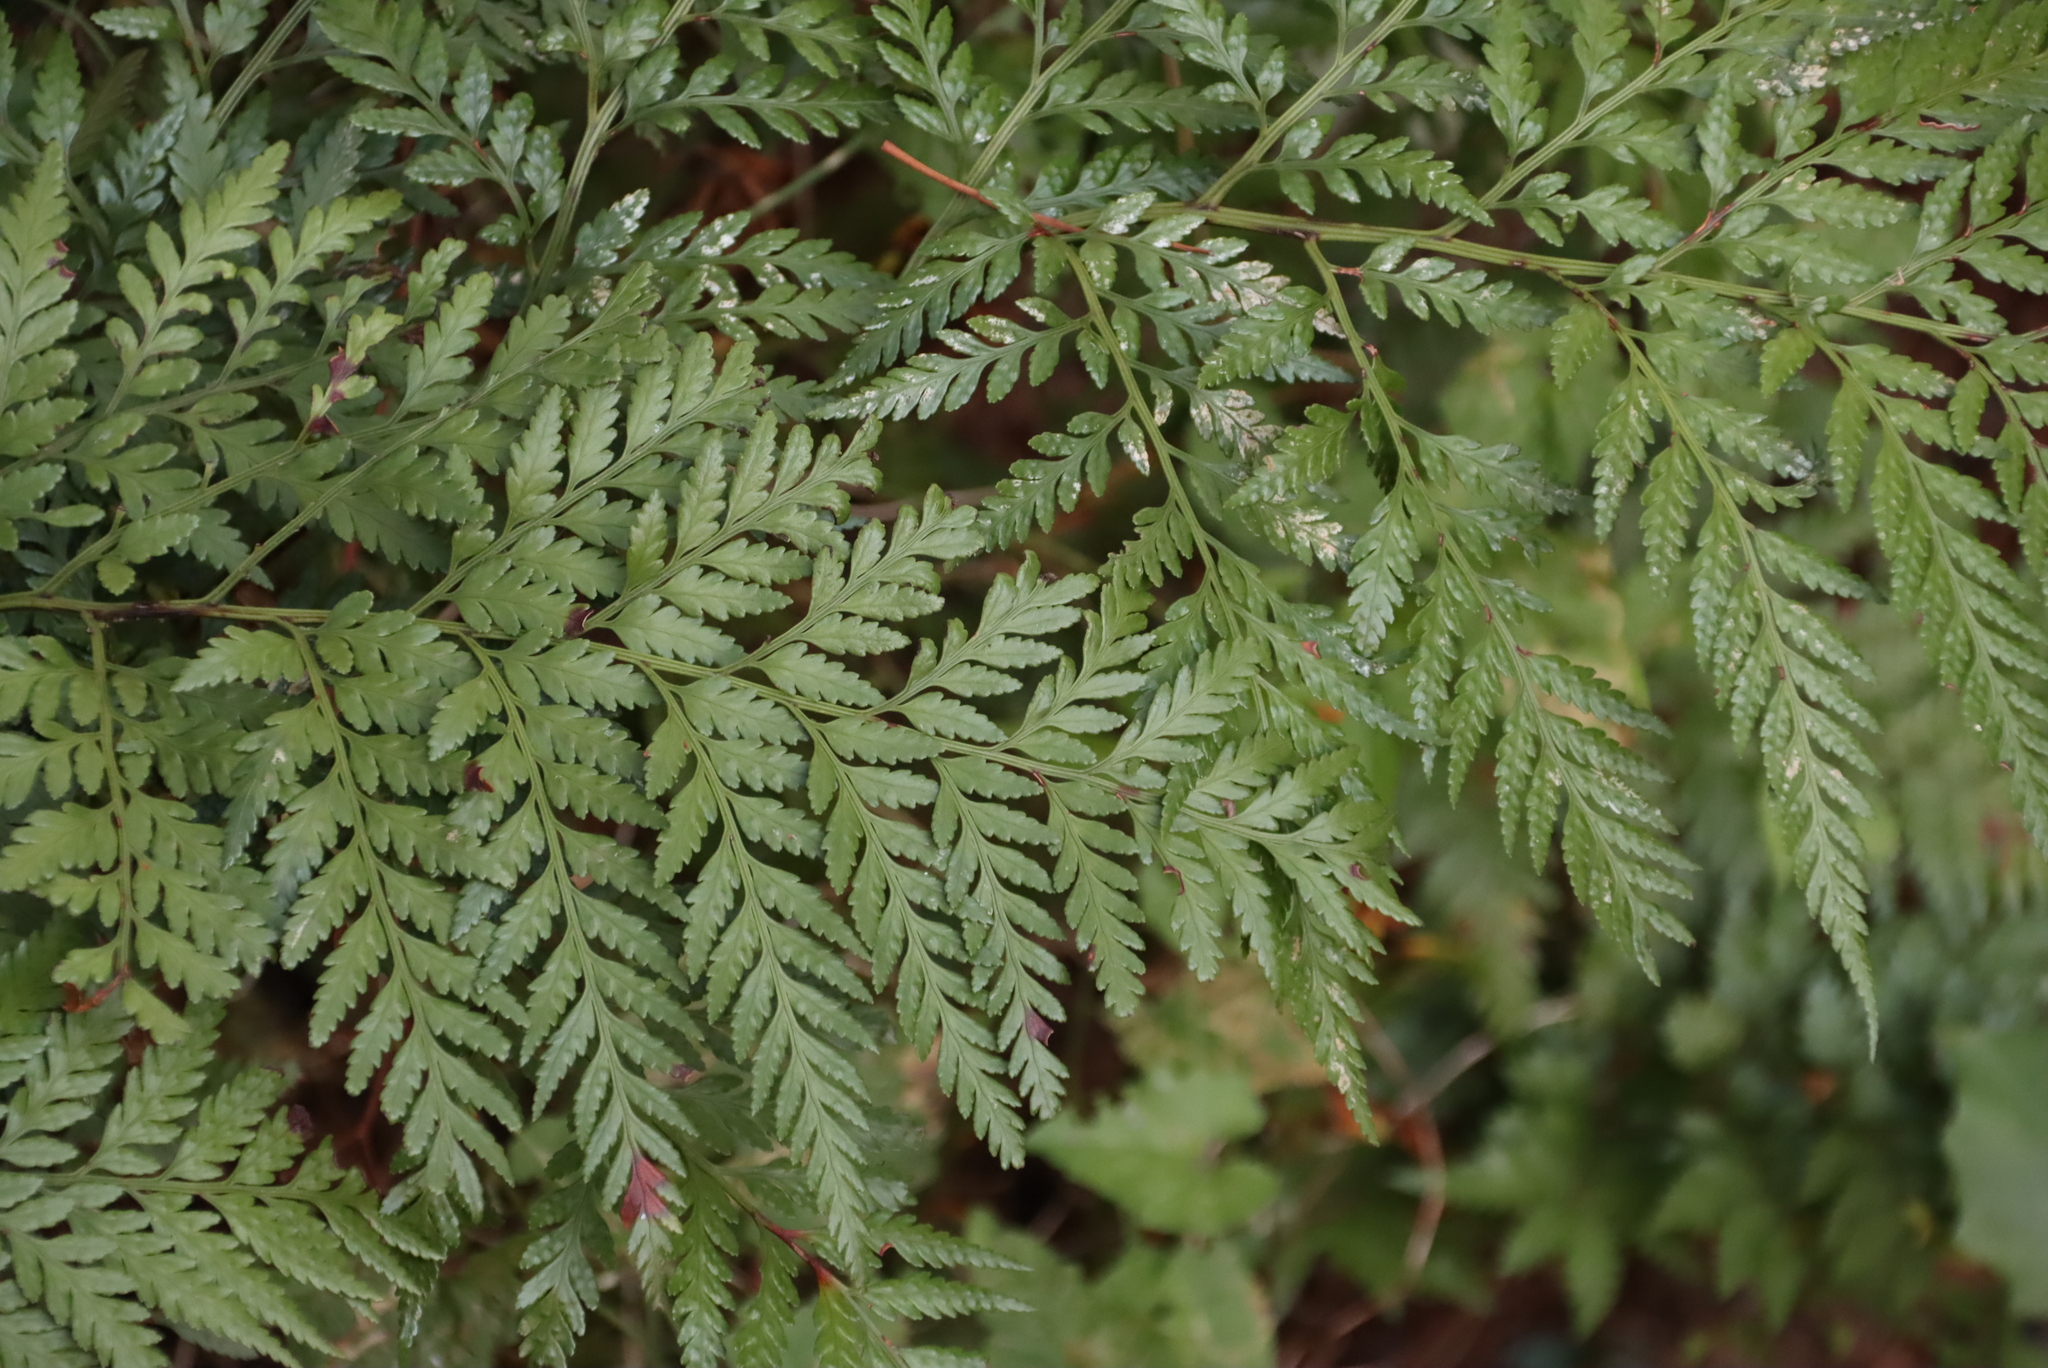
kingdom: Plantae
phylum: Tracheophyta
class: Polypodiopsida
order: Polypodiales
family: Dryopteridaceae
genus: Rumohra
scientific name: Rumohra adiantiformis
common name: Leather fern
